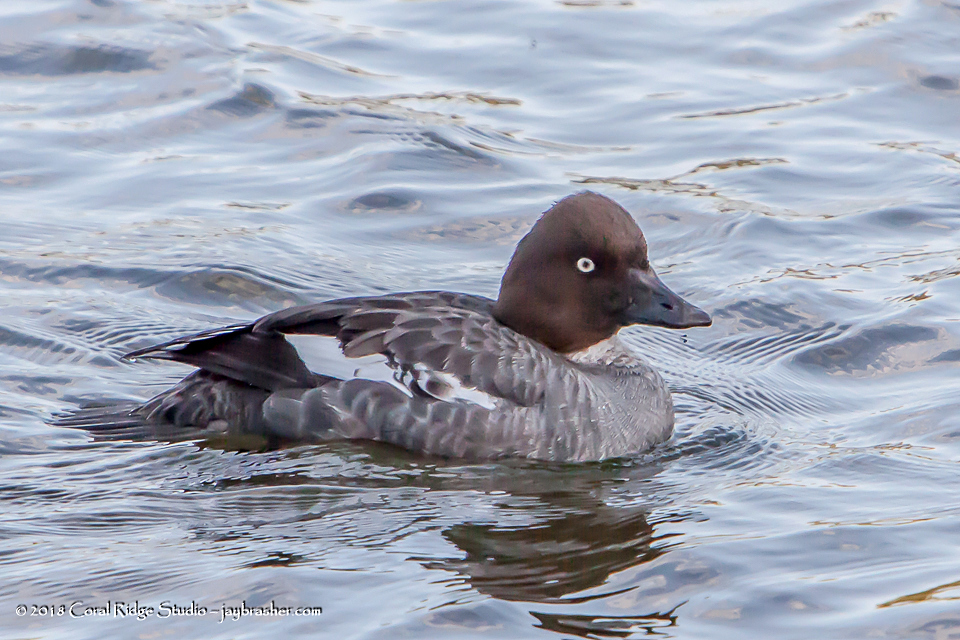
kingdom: Animalia
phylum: Chordata
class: Aves
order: Anseriformes
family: Anatidae
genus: Bucephala
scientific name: Bucephala clangula
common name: Common goldeneye
